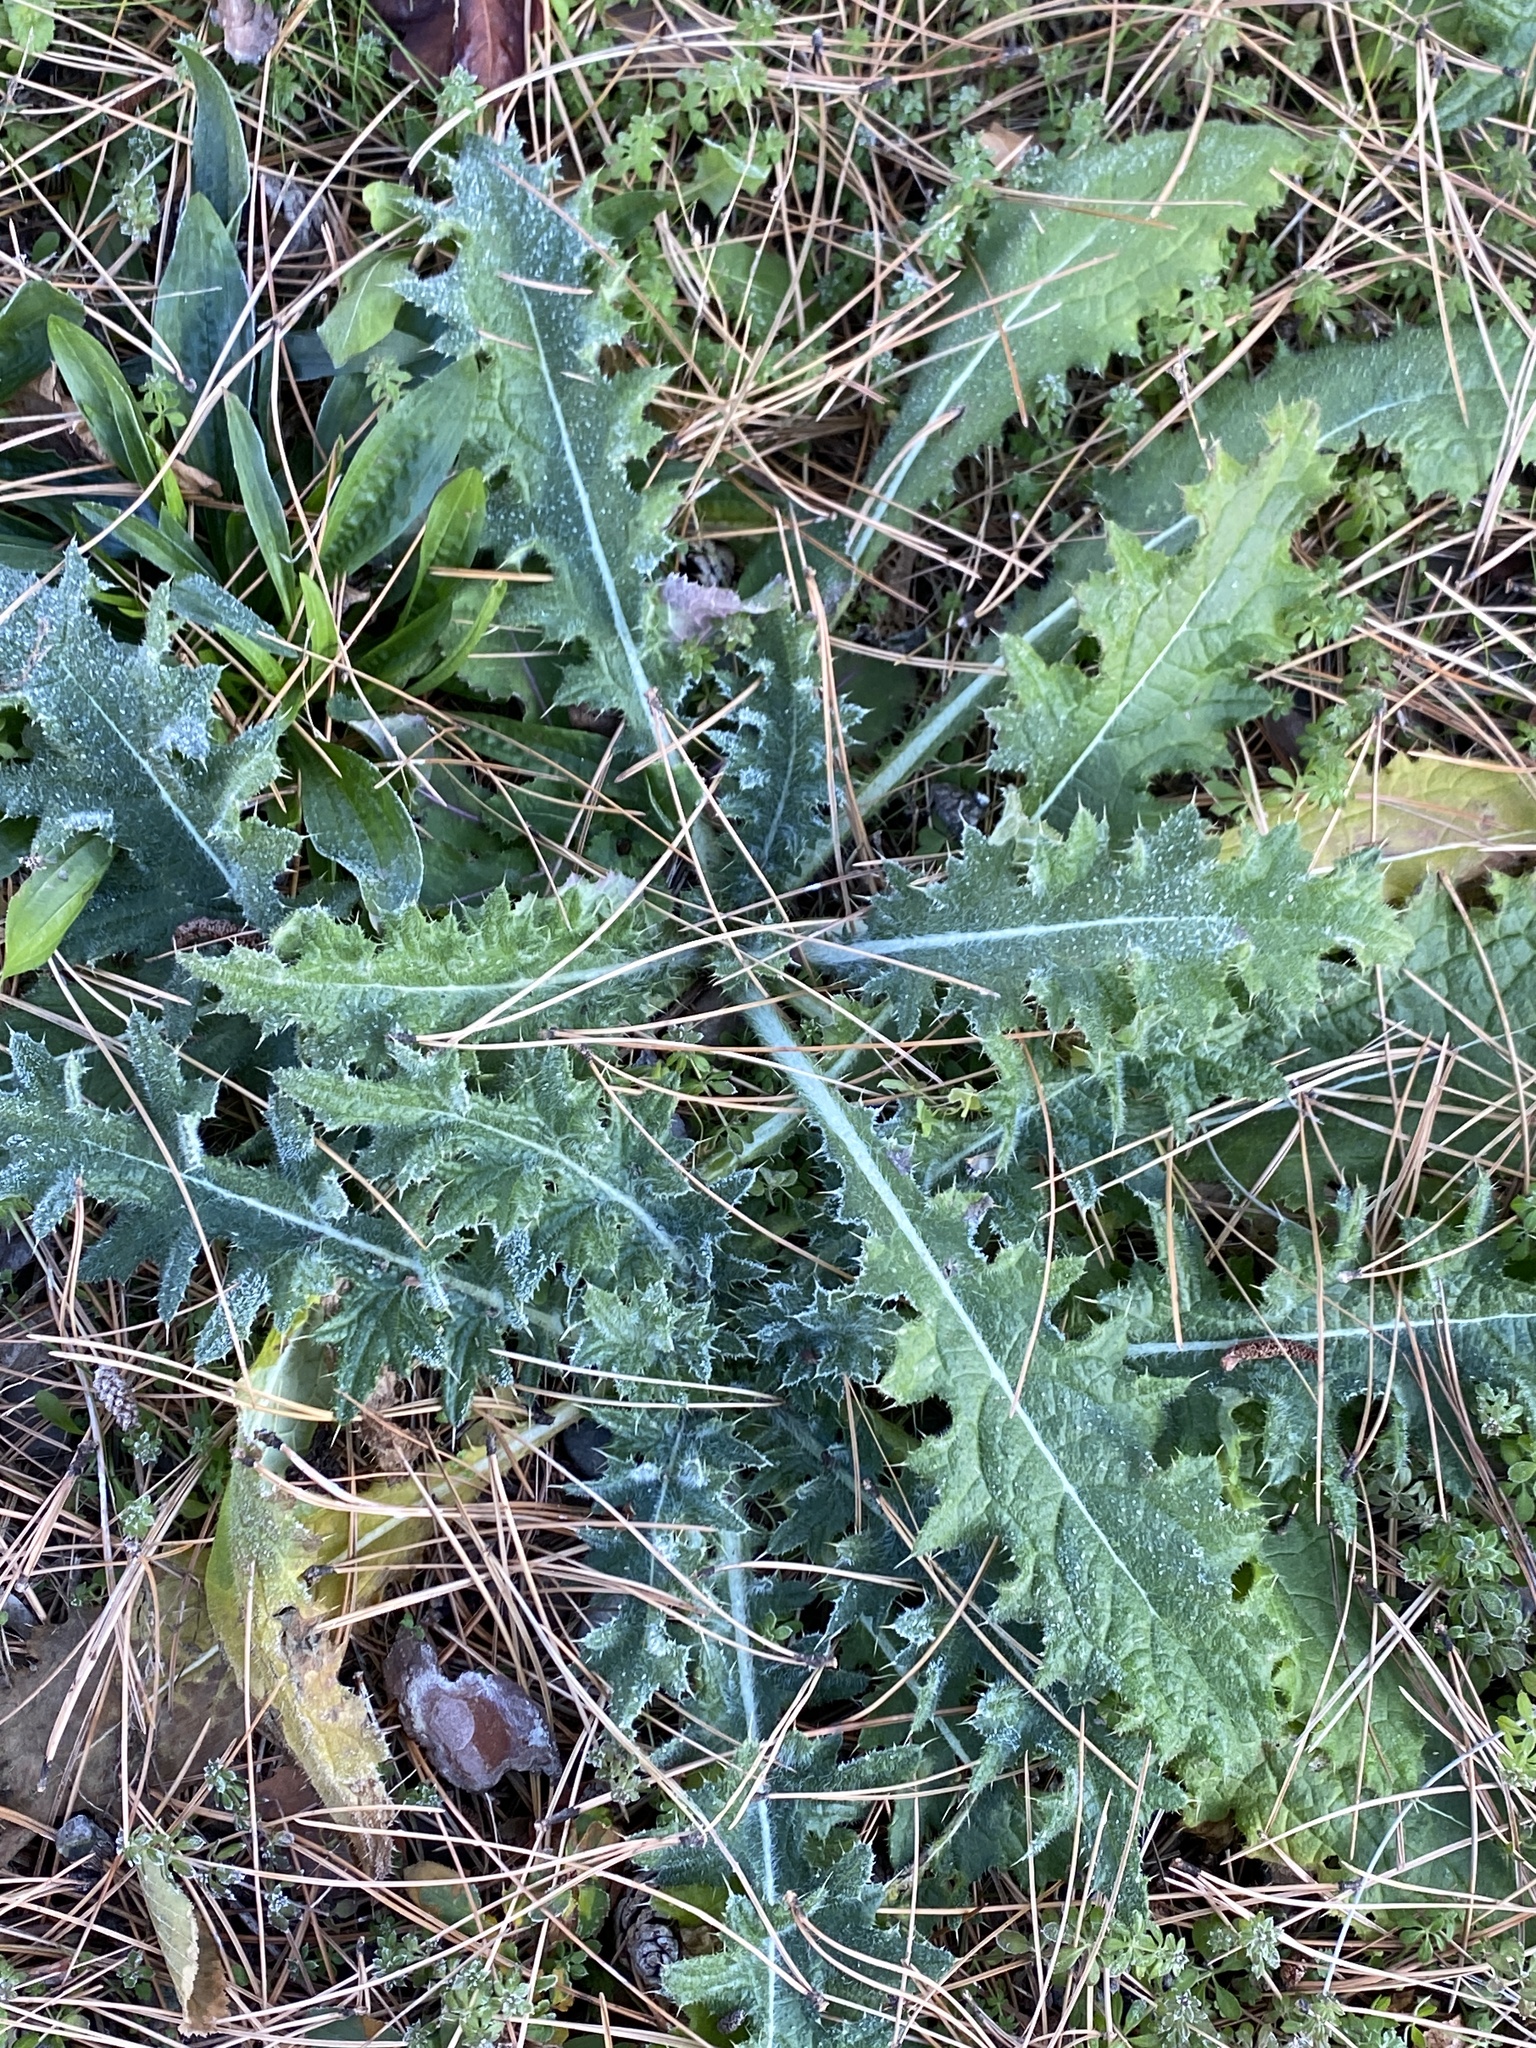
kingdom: Plantae
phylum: Tracheophyta
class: Magnoliopsida
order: Asterales
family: Asteraceae
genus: Cirsium
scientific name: Cirsium vulgare
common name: Bull thistle
